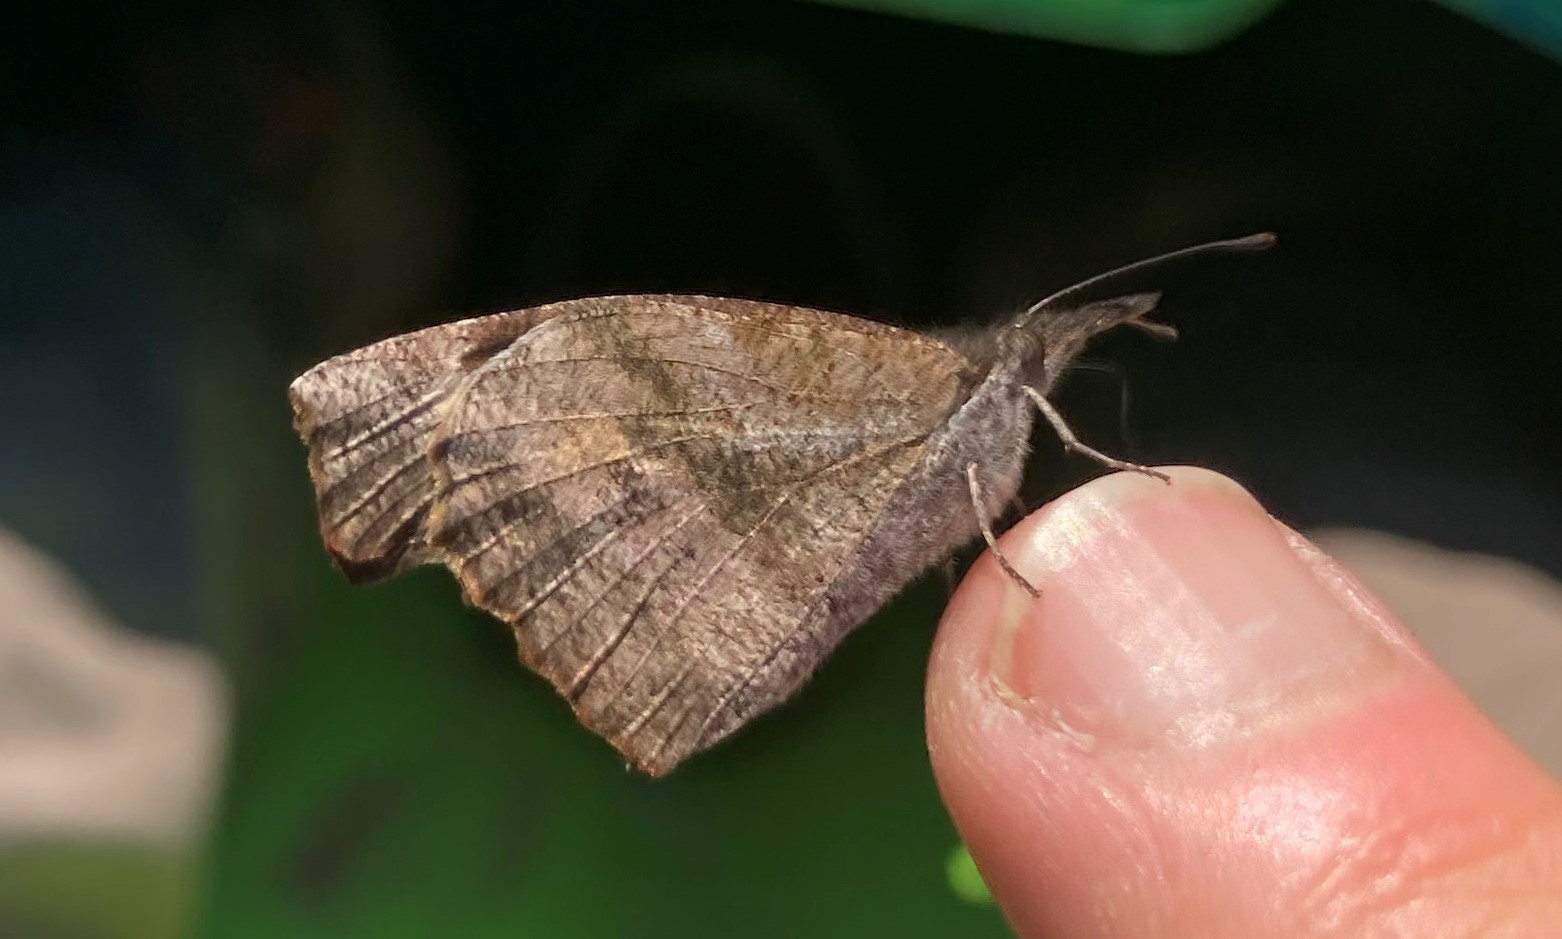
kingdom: Animalia
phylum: Arthropoda
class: Insecta
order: Lepidoptera
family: Nymphalidae
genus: Libytheana
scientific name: Libytheana carinenta
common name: American snout
